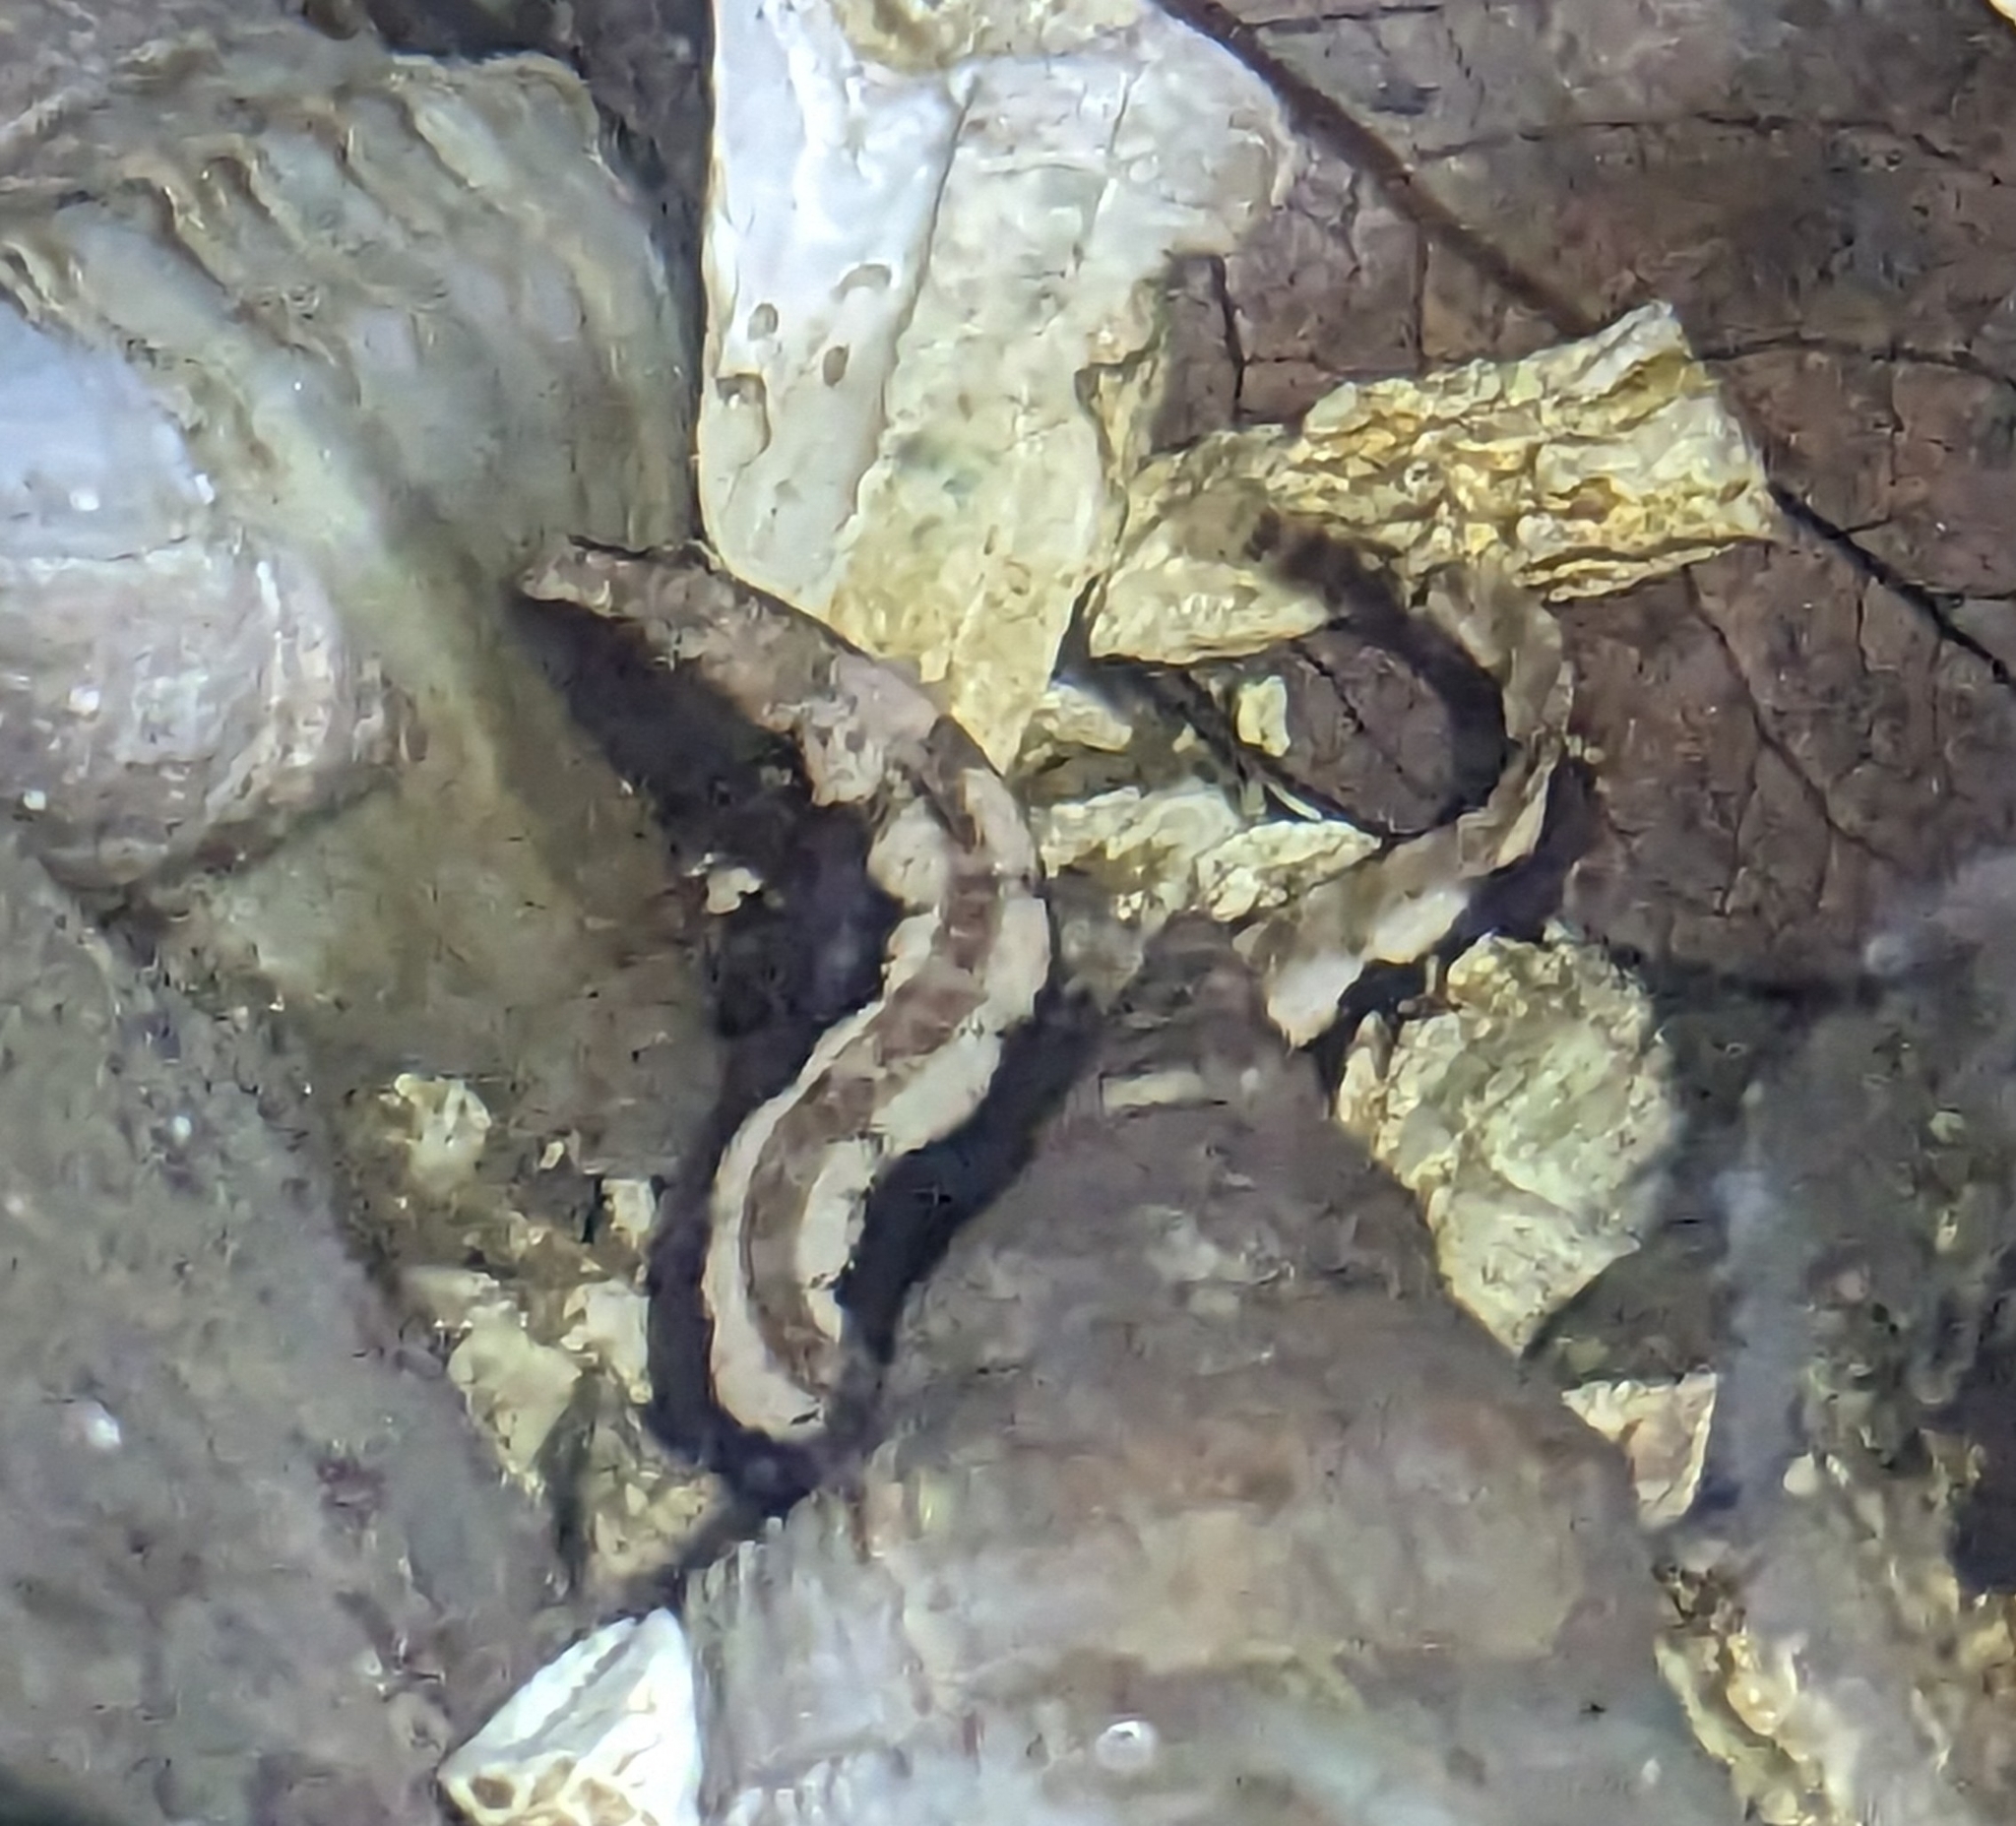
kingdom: Animalia
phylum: Chordata
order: Perciformes
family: Stichaeidae
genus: Anoplarchus
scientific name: Anoplarchus purpurescens
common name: High cockscomb
